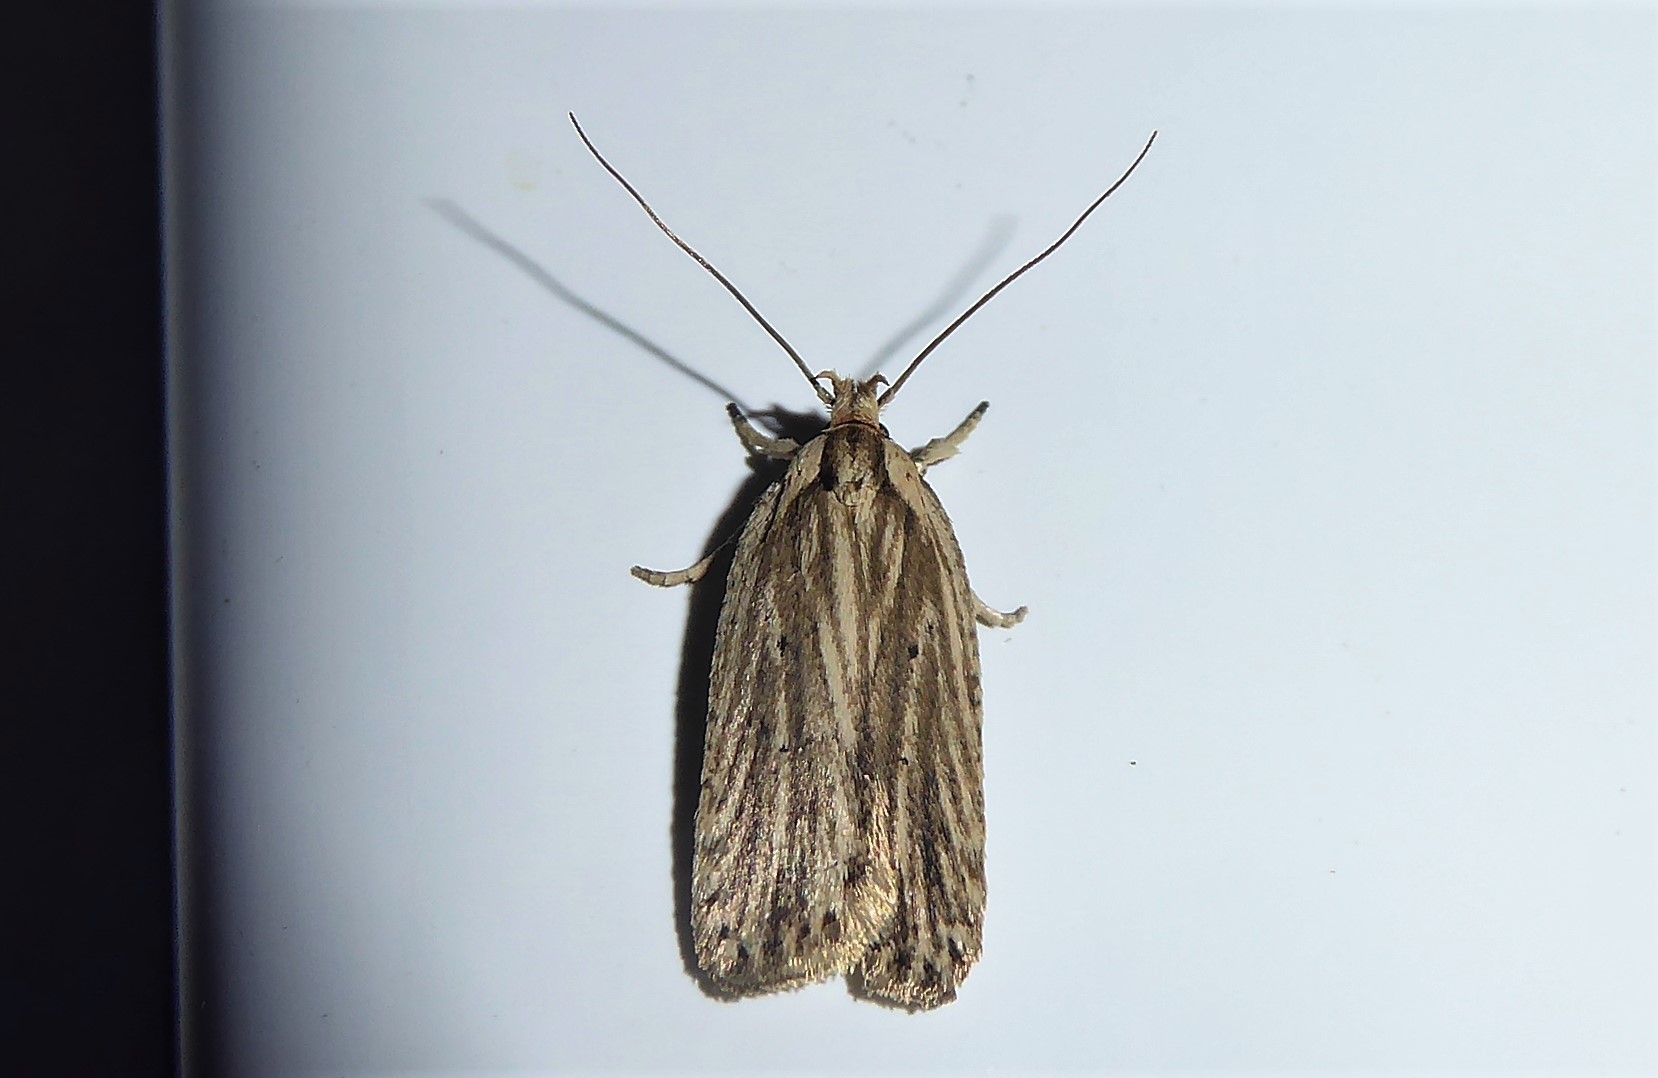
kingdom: Animalia
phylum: Arthropoda
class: Insecta
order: Lepidoptera
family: Depressariidae
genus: Agonopterix
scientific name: Agonopterix
